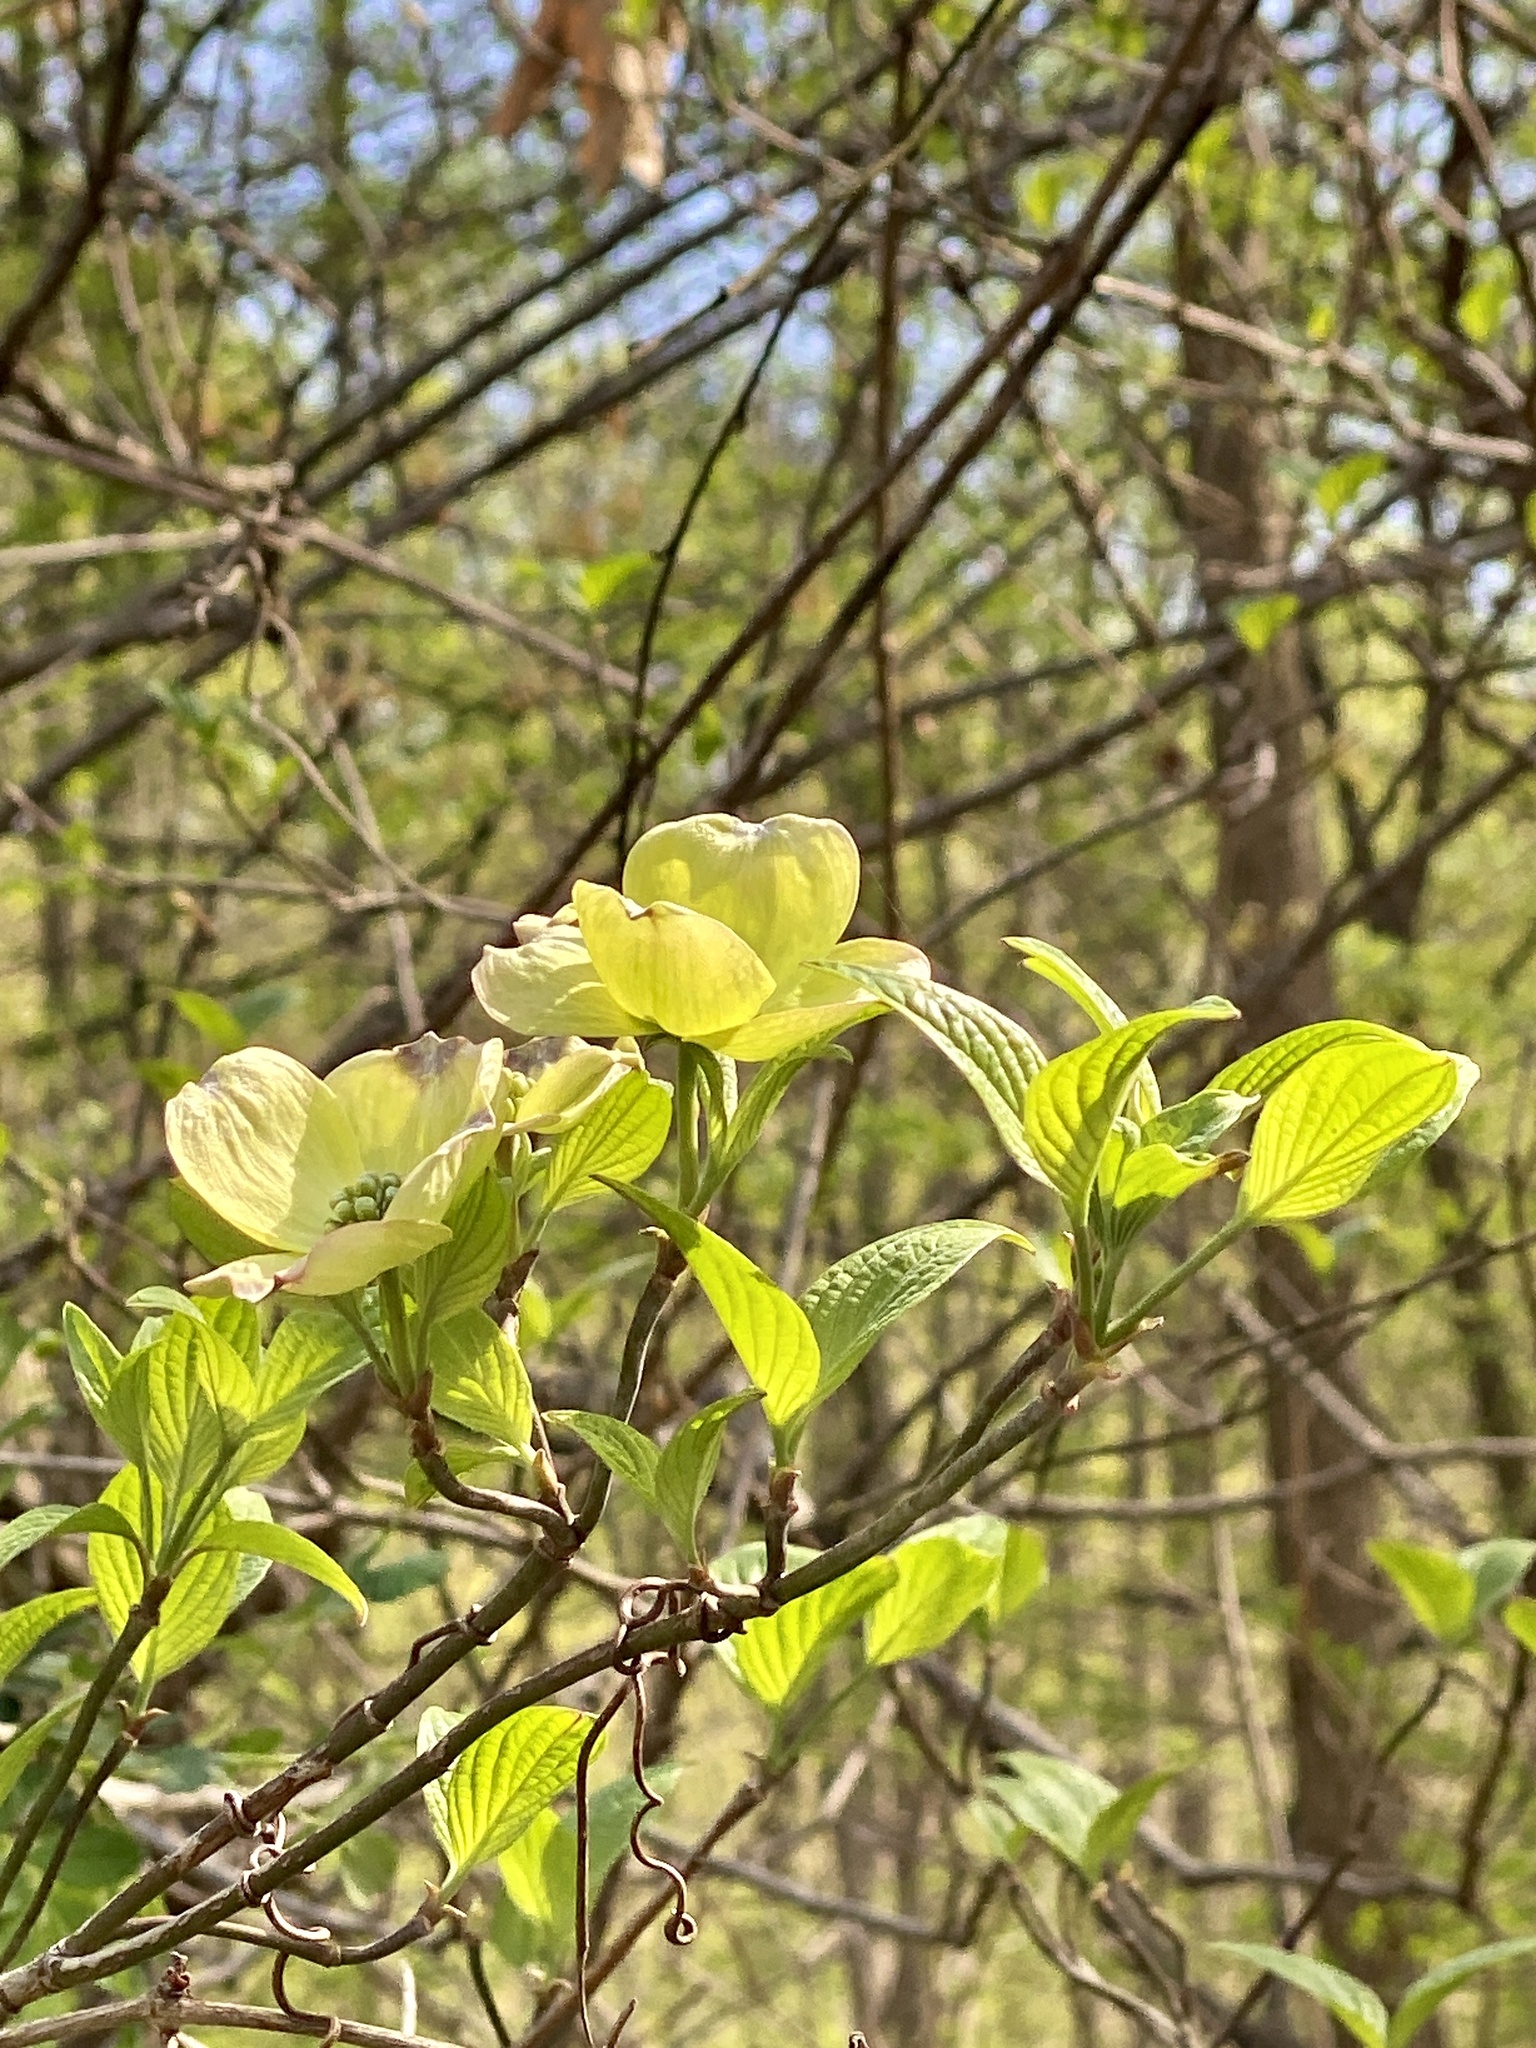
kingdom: Plantae
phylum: Tracheophyta
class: Magnoliopsida
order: Cornales
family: Cornaceae
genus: Cornus
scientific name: Cornus florida
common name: Flowering dogwood
